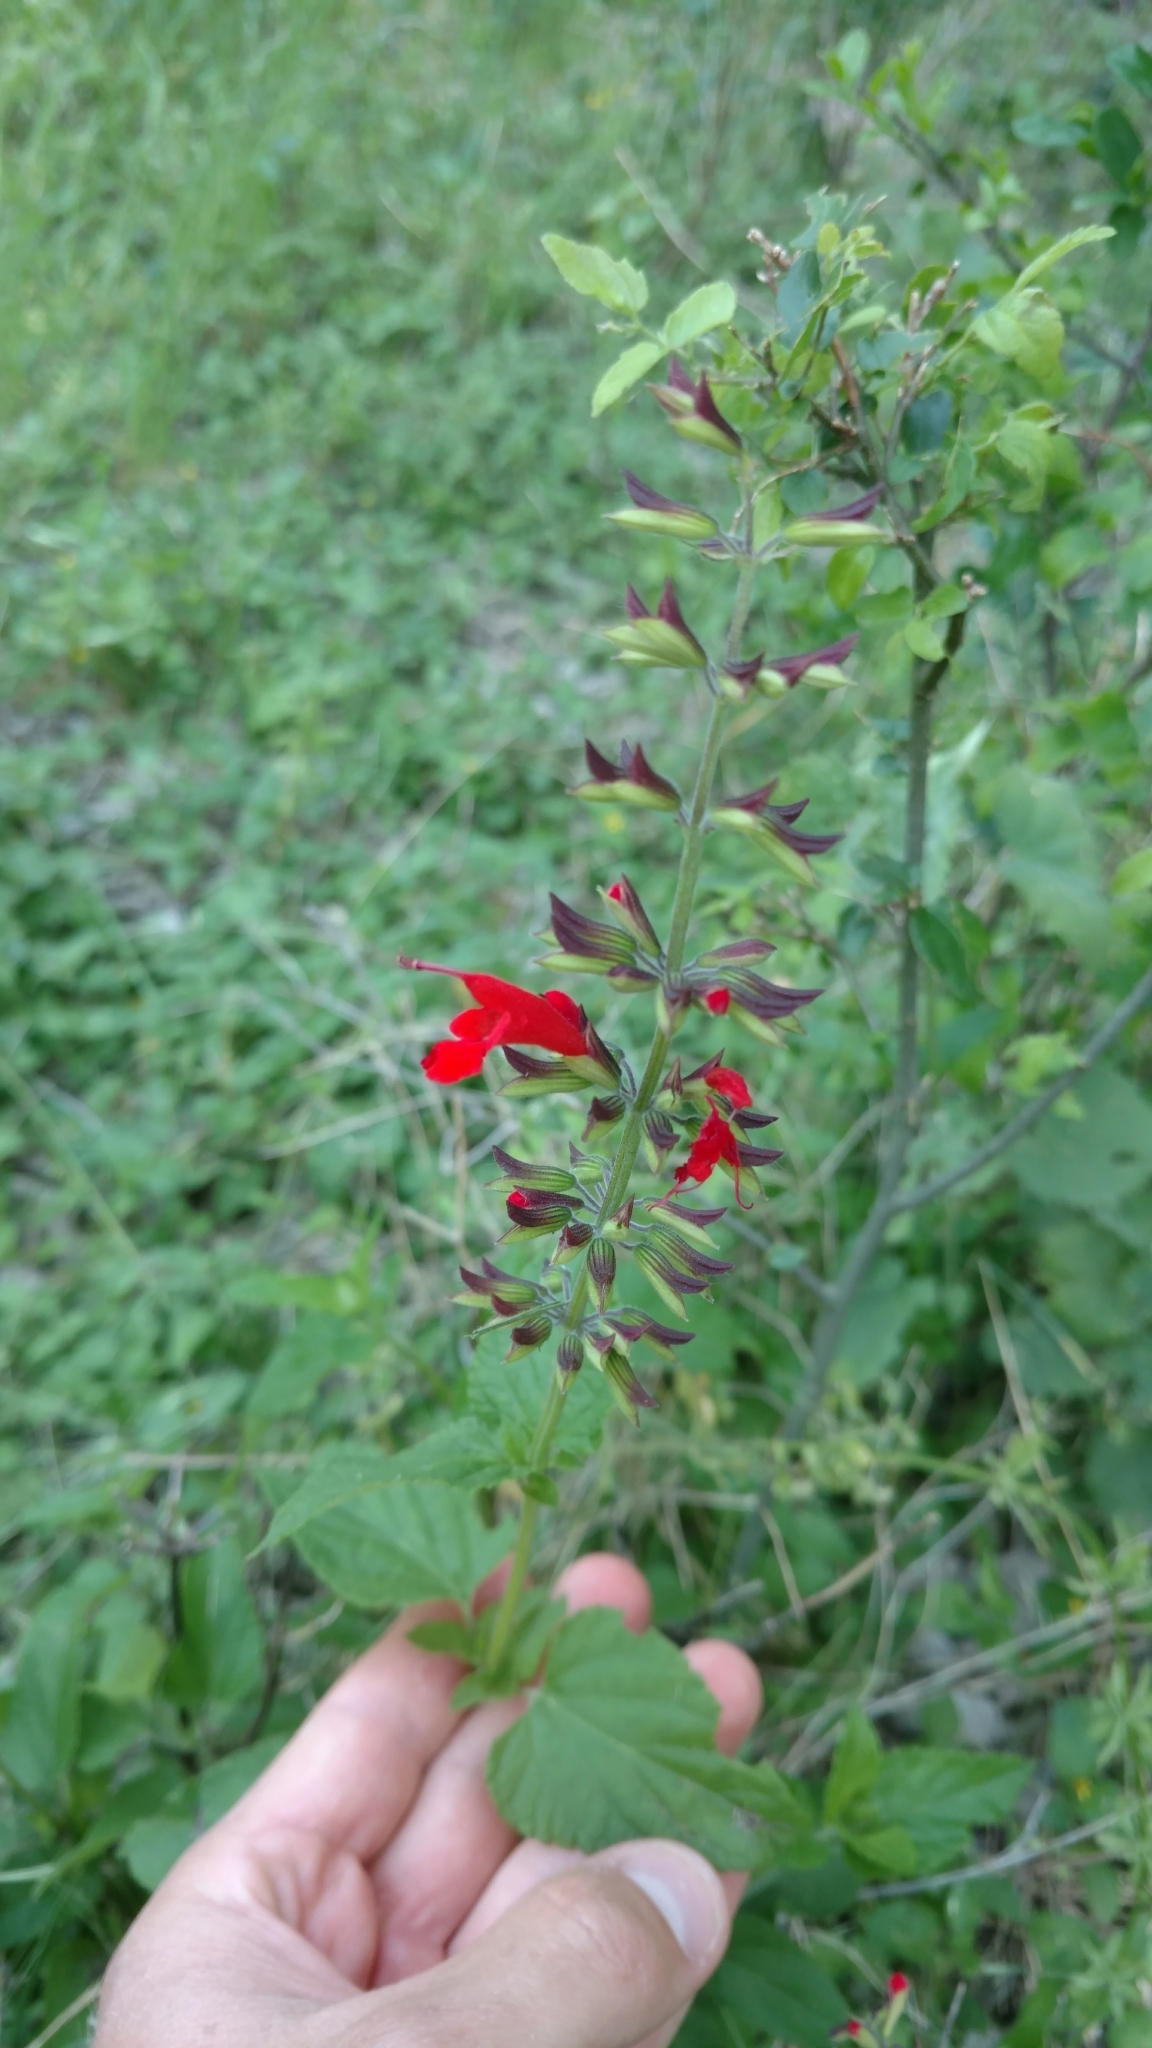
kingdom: Plantae
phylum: Tracheophyta
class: Magnoliopsida
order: Lamiales
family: Lamiaceae
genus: Salvia
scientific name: Salvia coccinea
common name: Blood sage
